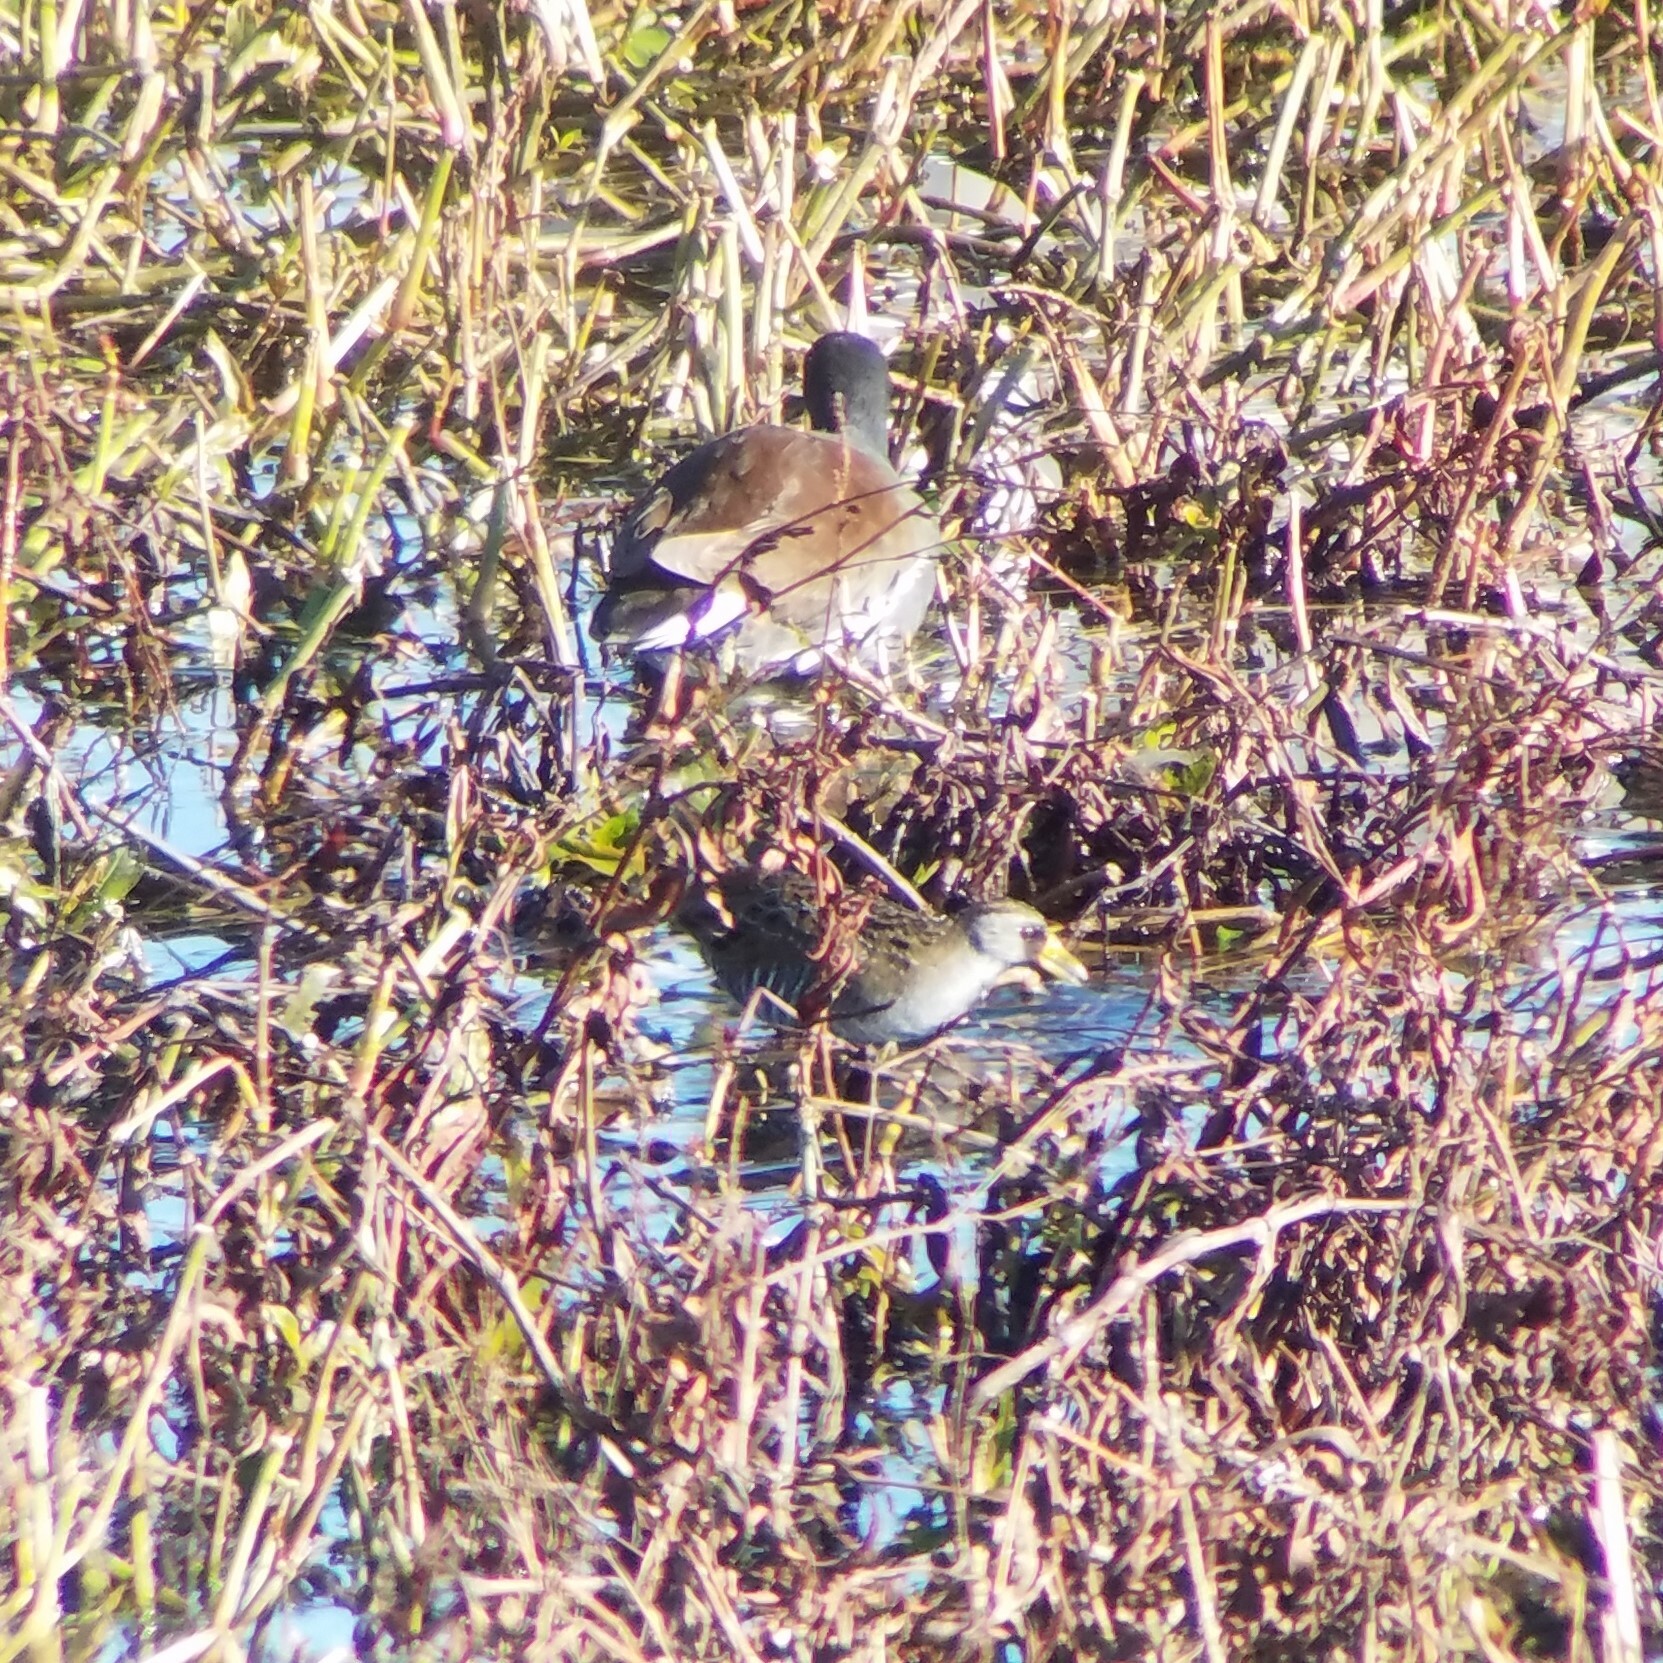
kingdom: Animalia
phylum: Chordata
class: Aves
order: Gruiformes
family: Rallidae
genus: Porzana
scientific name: Porzana carolina
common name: Sora
